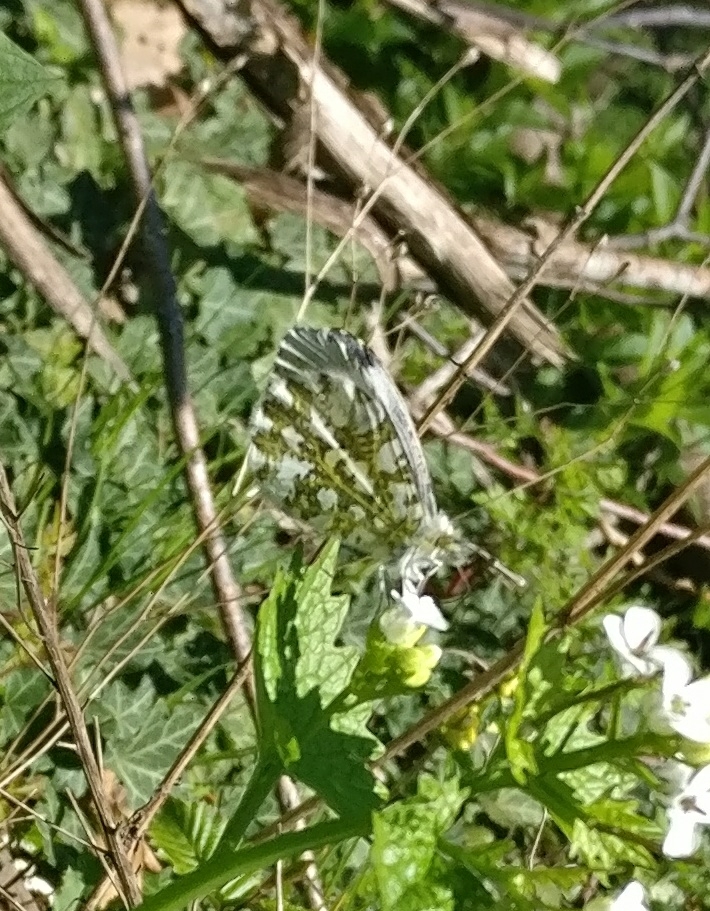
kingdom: Animalia
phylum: Arthropoda
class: Insecta
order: Lepidoptera
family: Pieridae
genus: Anthocharis
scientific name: Anthocharis cardamines
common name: Orange-tip
